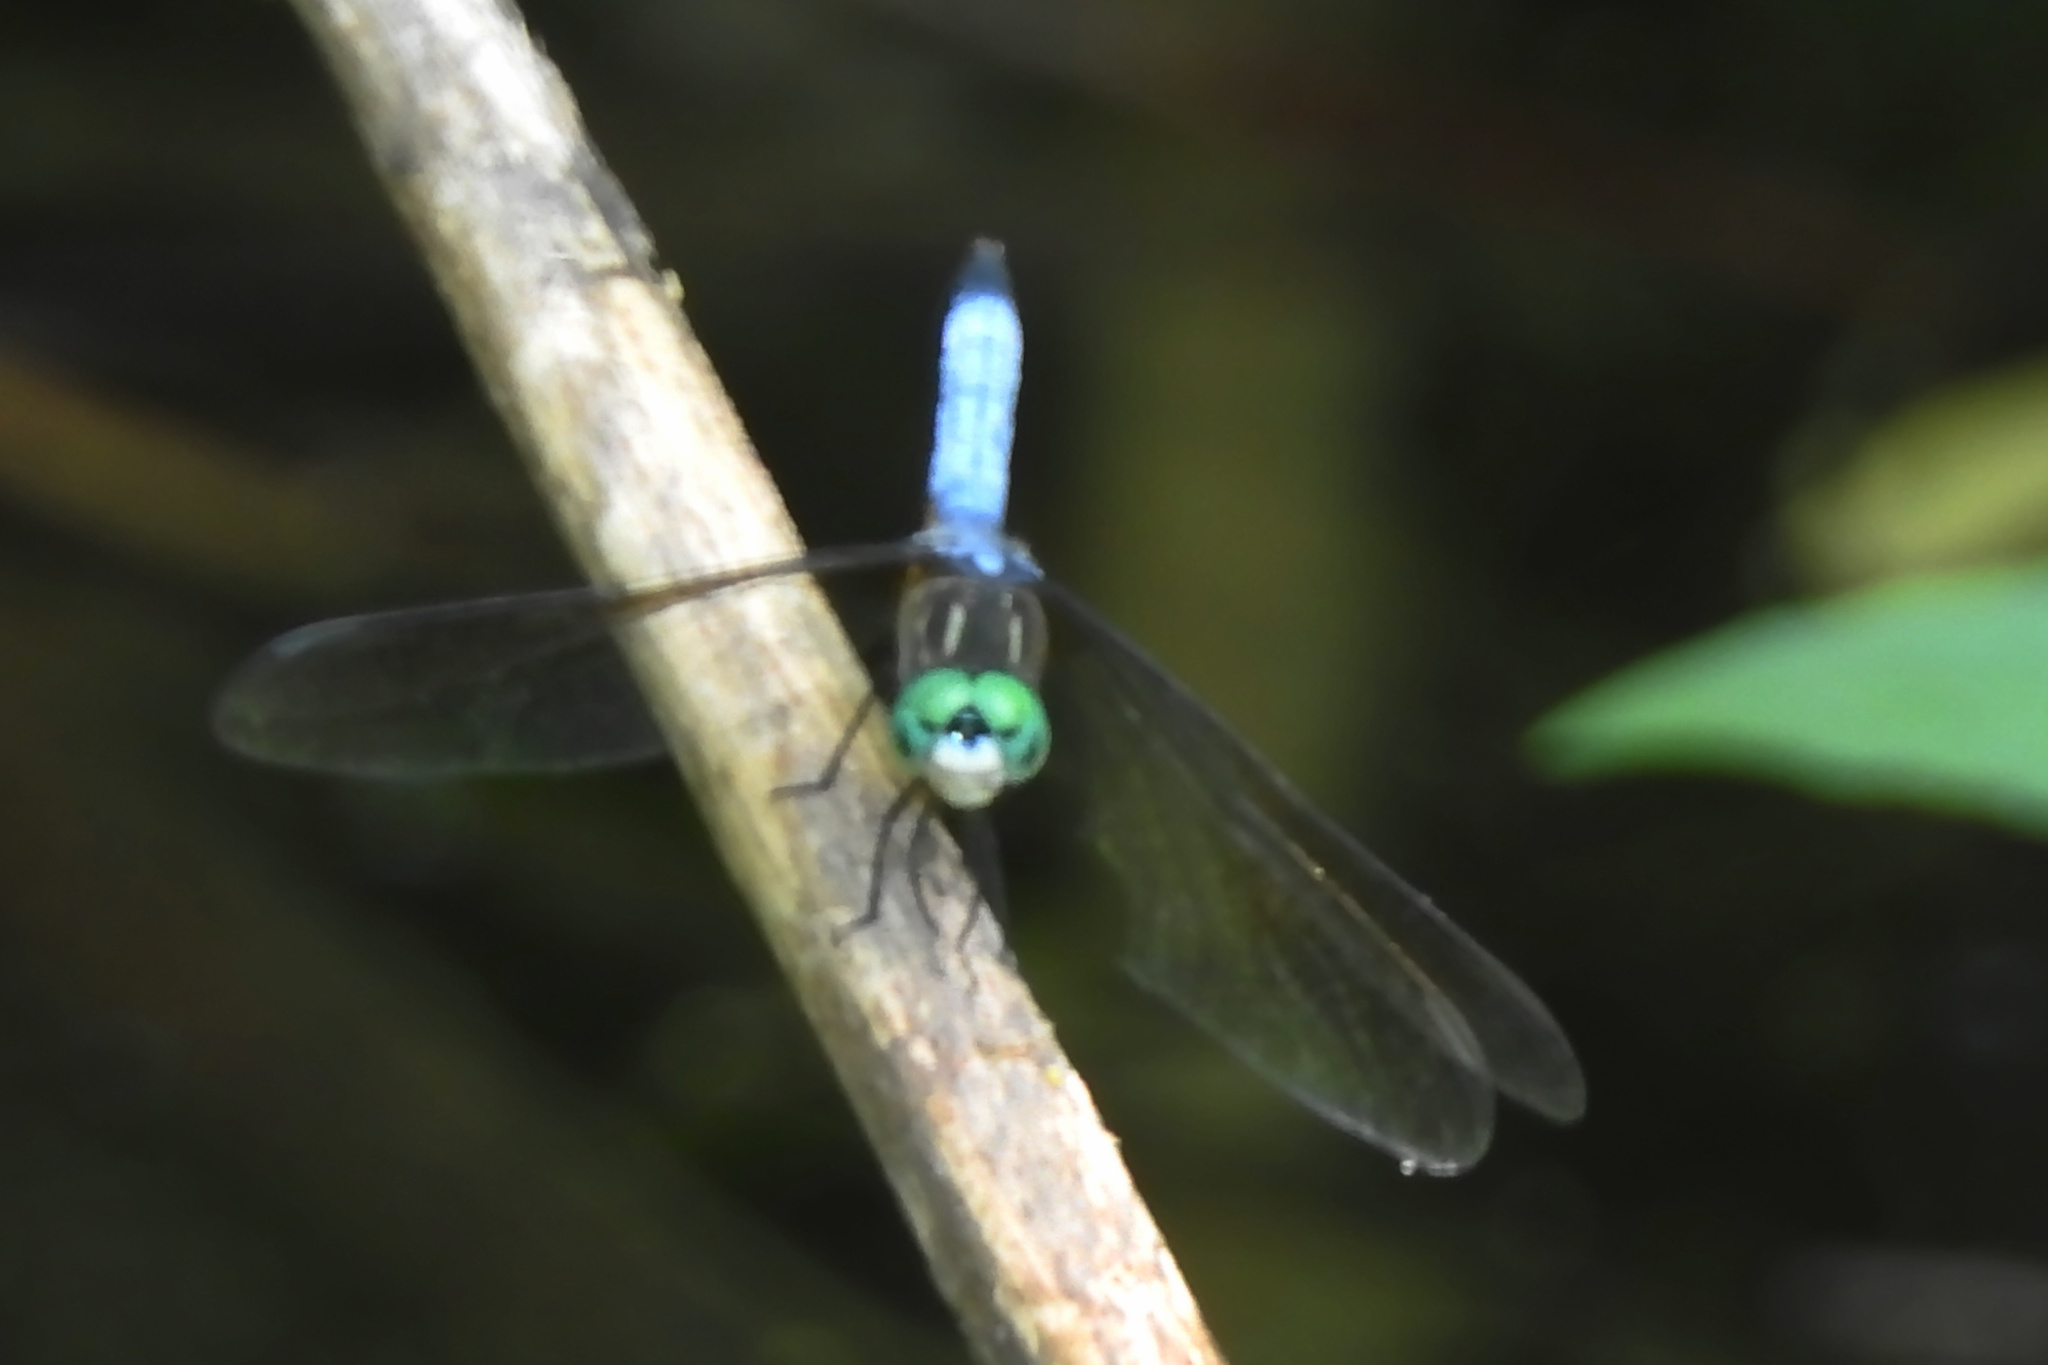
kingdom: Animalia
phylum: Arthropoda
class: Insecta
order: Odonata
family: Libellulidae
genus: Pachydiplax
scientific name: Pachydiplax longipennis
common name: Blue dasher
